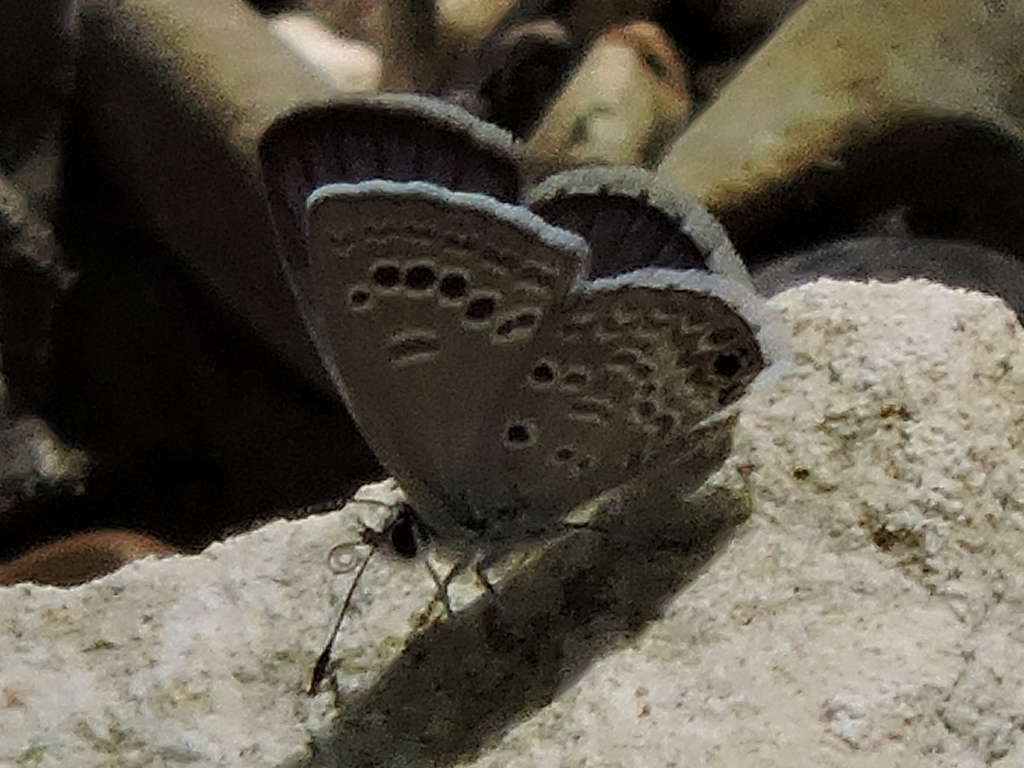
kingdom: Animalia
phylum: Arthropoda
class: Insecta
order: Lepidoptera
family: Lycaenidae
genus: Echinargus
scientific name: Echinargus isola
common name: Reakirt's blue
